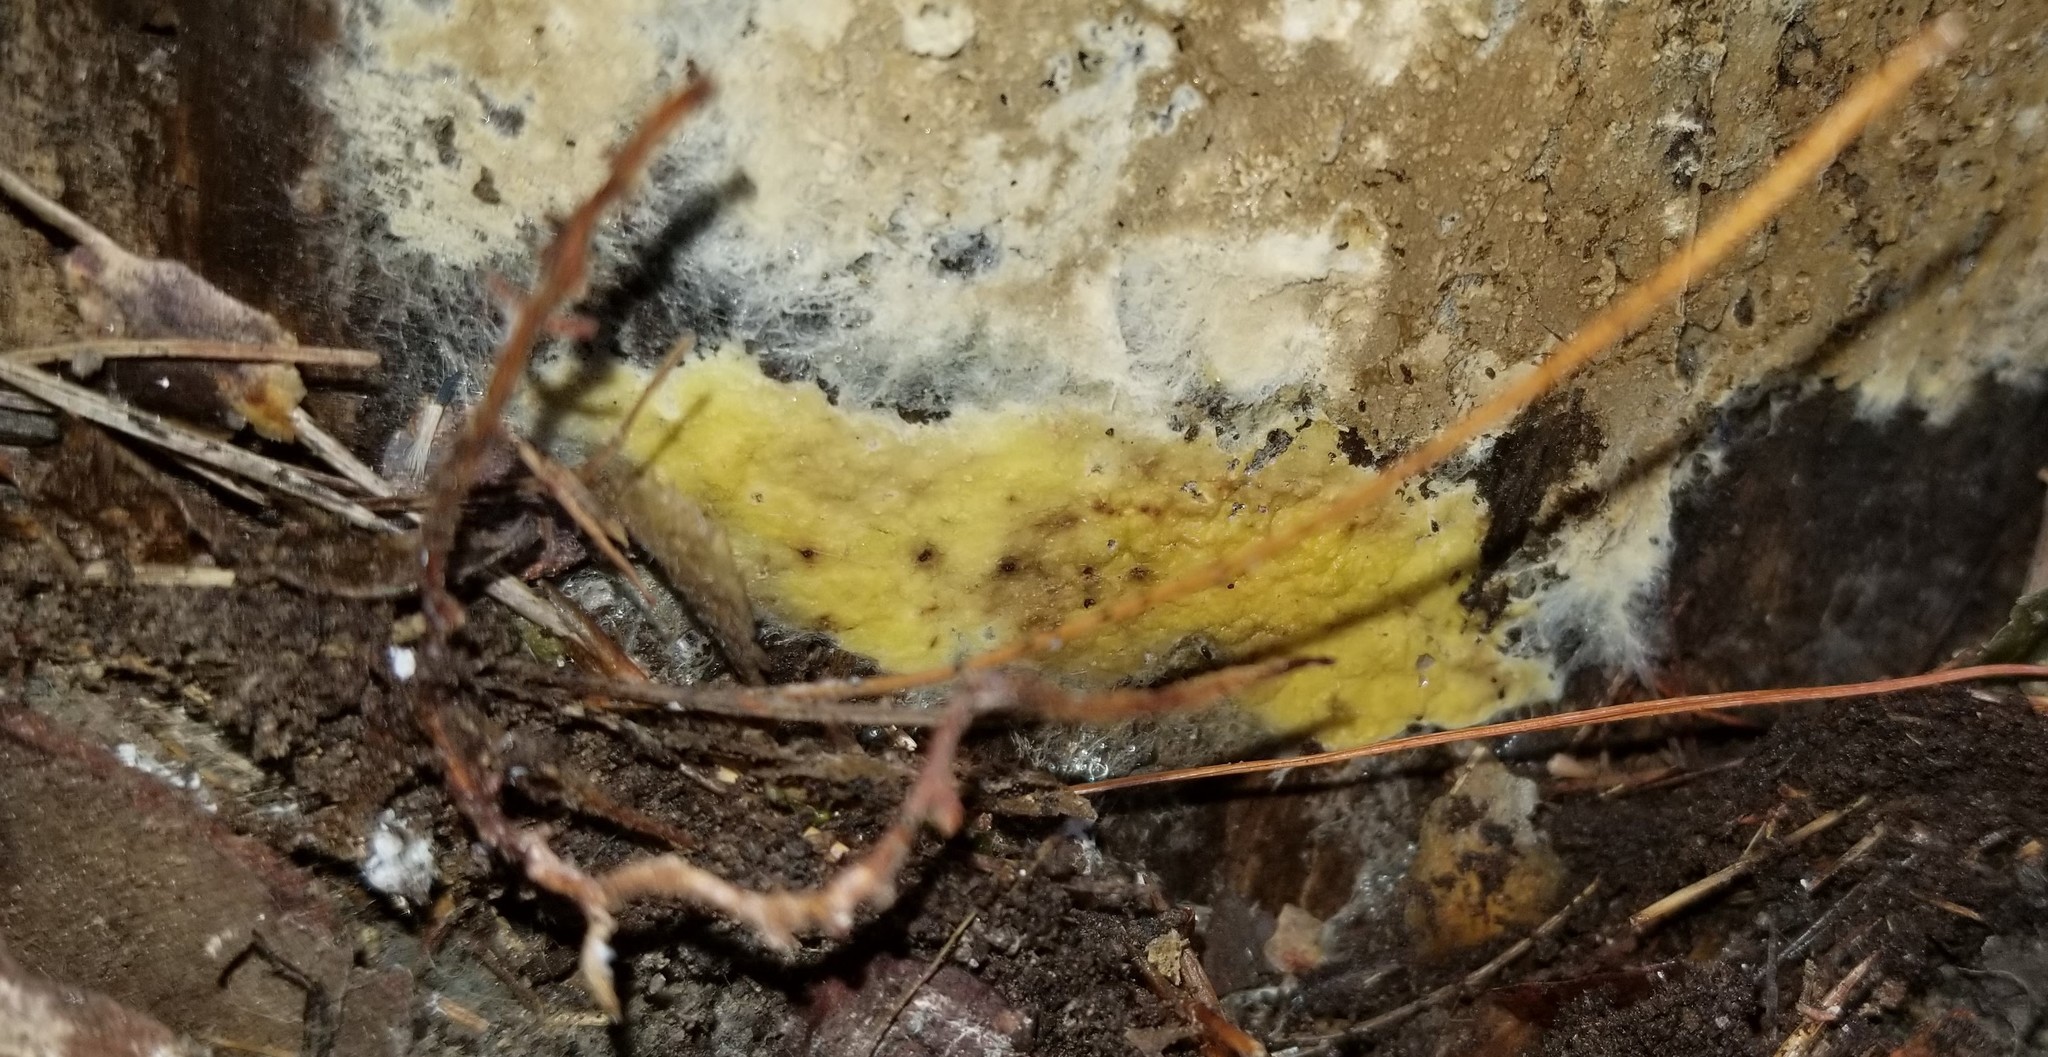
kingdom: Fungi
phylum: Basidiomycota
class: Agaricomycetes
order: Boletales
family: Coniophoraceae
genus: Penttilamyces
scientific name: Penttilamyces olivascens
